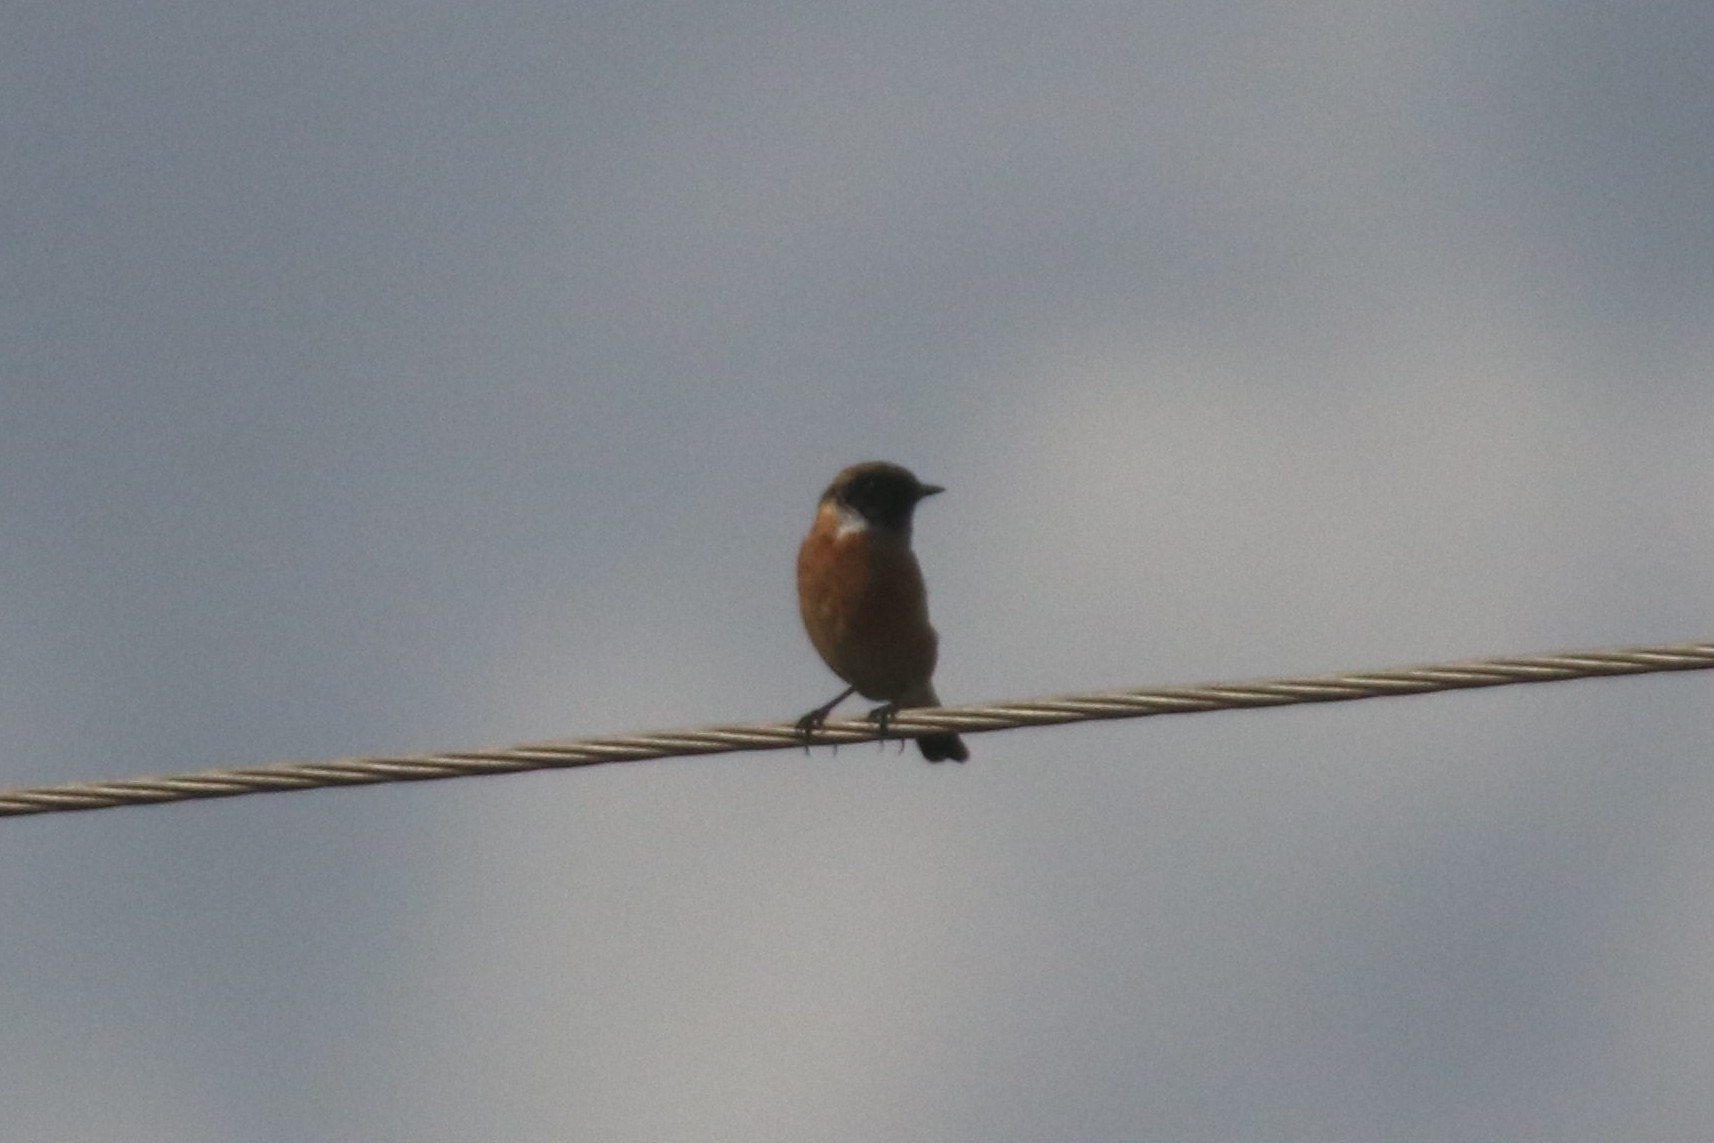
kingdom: Animalia
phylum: Chordata
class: Aves
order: Passeriformes
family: Muscicapidae
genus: Saxicola
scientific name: Saxicola maurus
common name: Siberian stonechat
